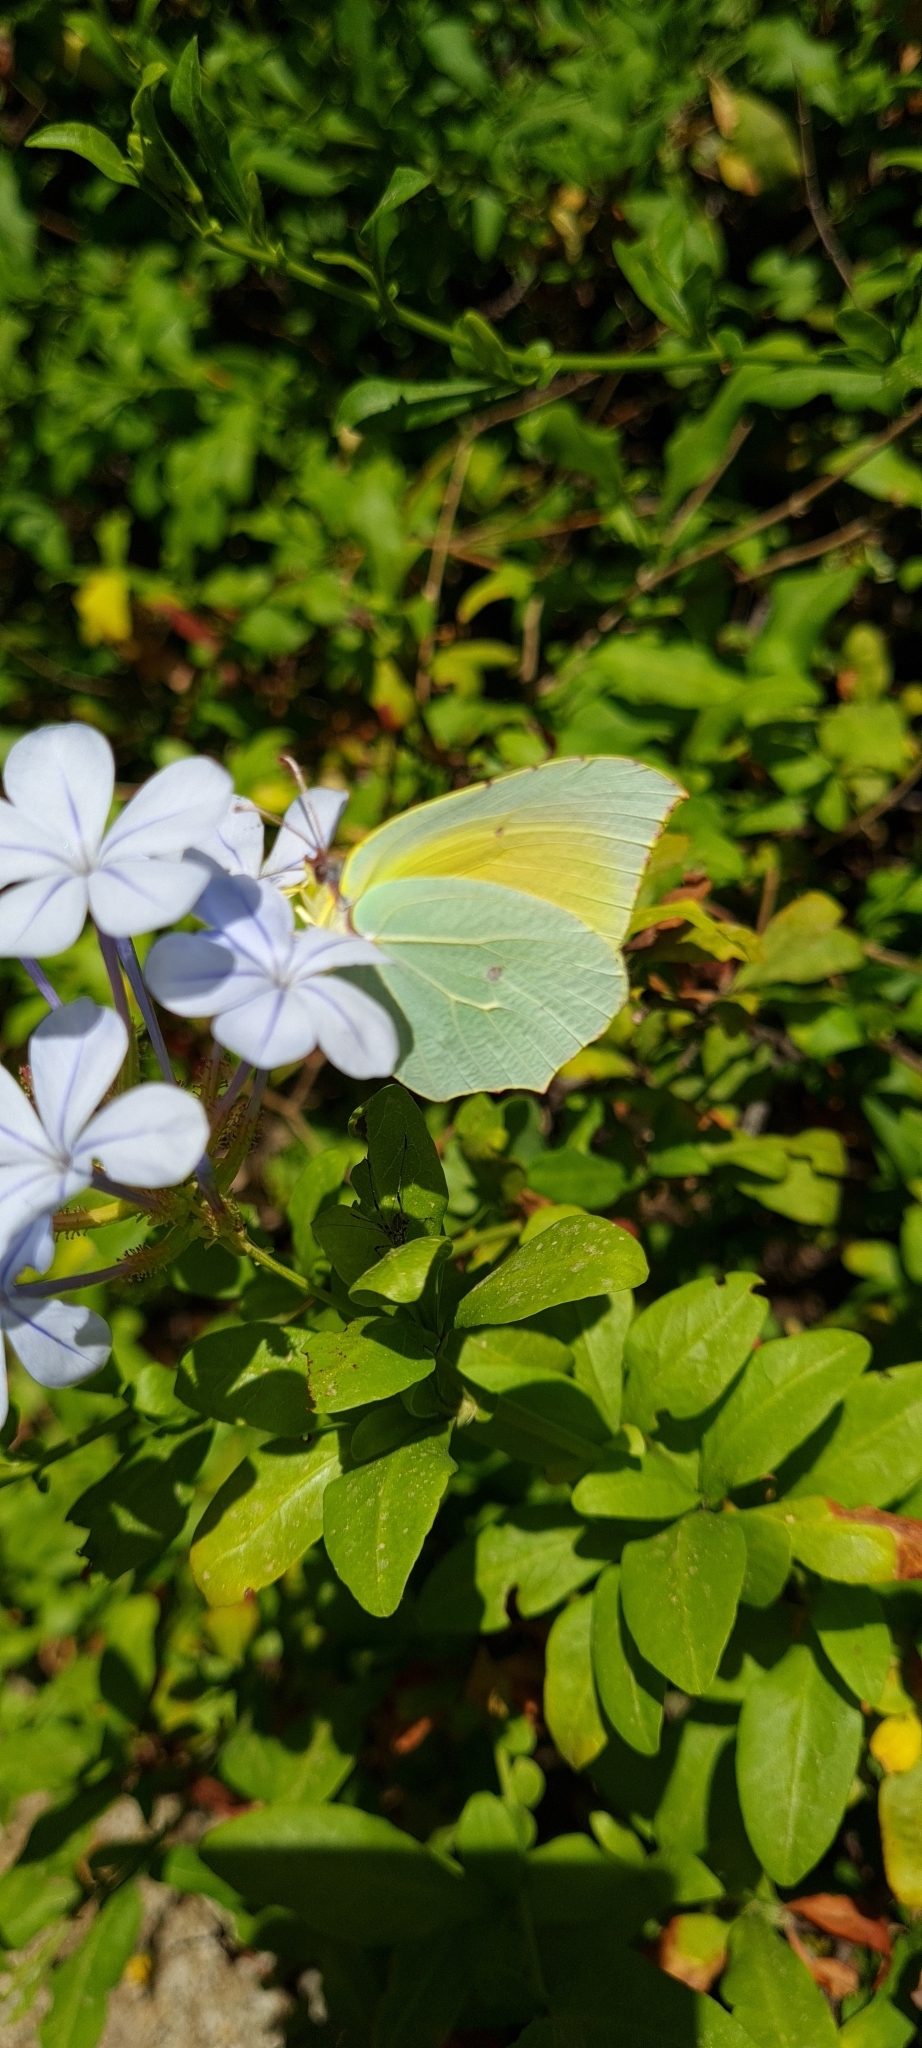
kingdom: Animalia
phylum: Arthropoda
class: Insecta
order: Lepidoptera
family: Pieridae
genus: Gonepteryx
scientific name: Gonepteryx cleopatra
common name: Cleopatra
